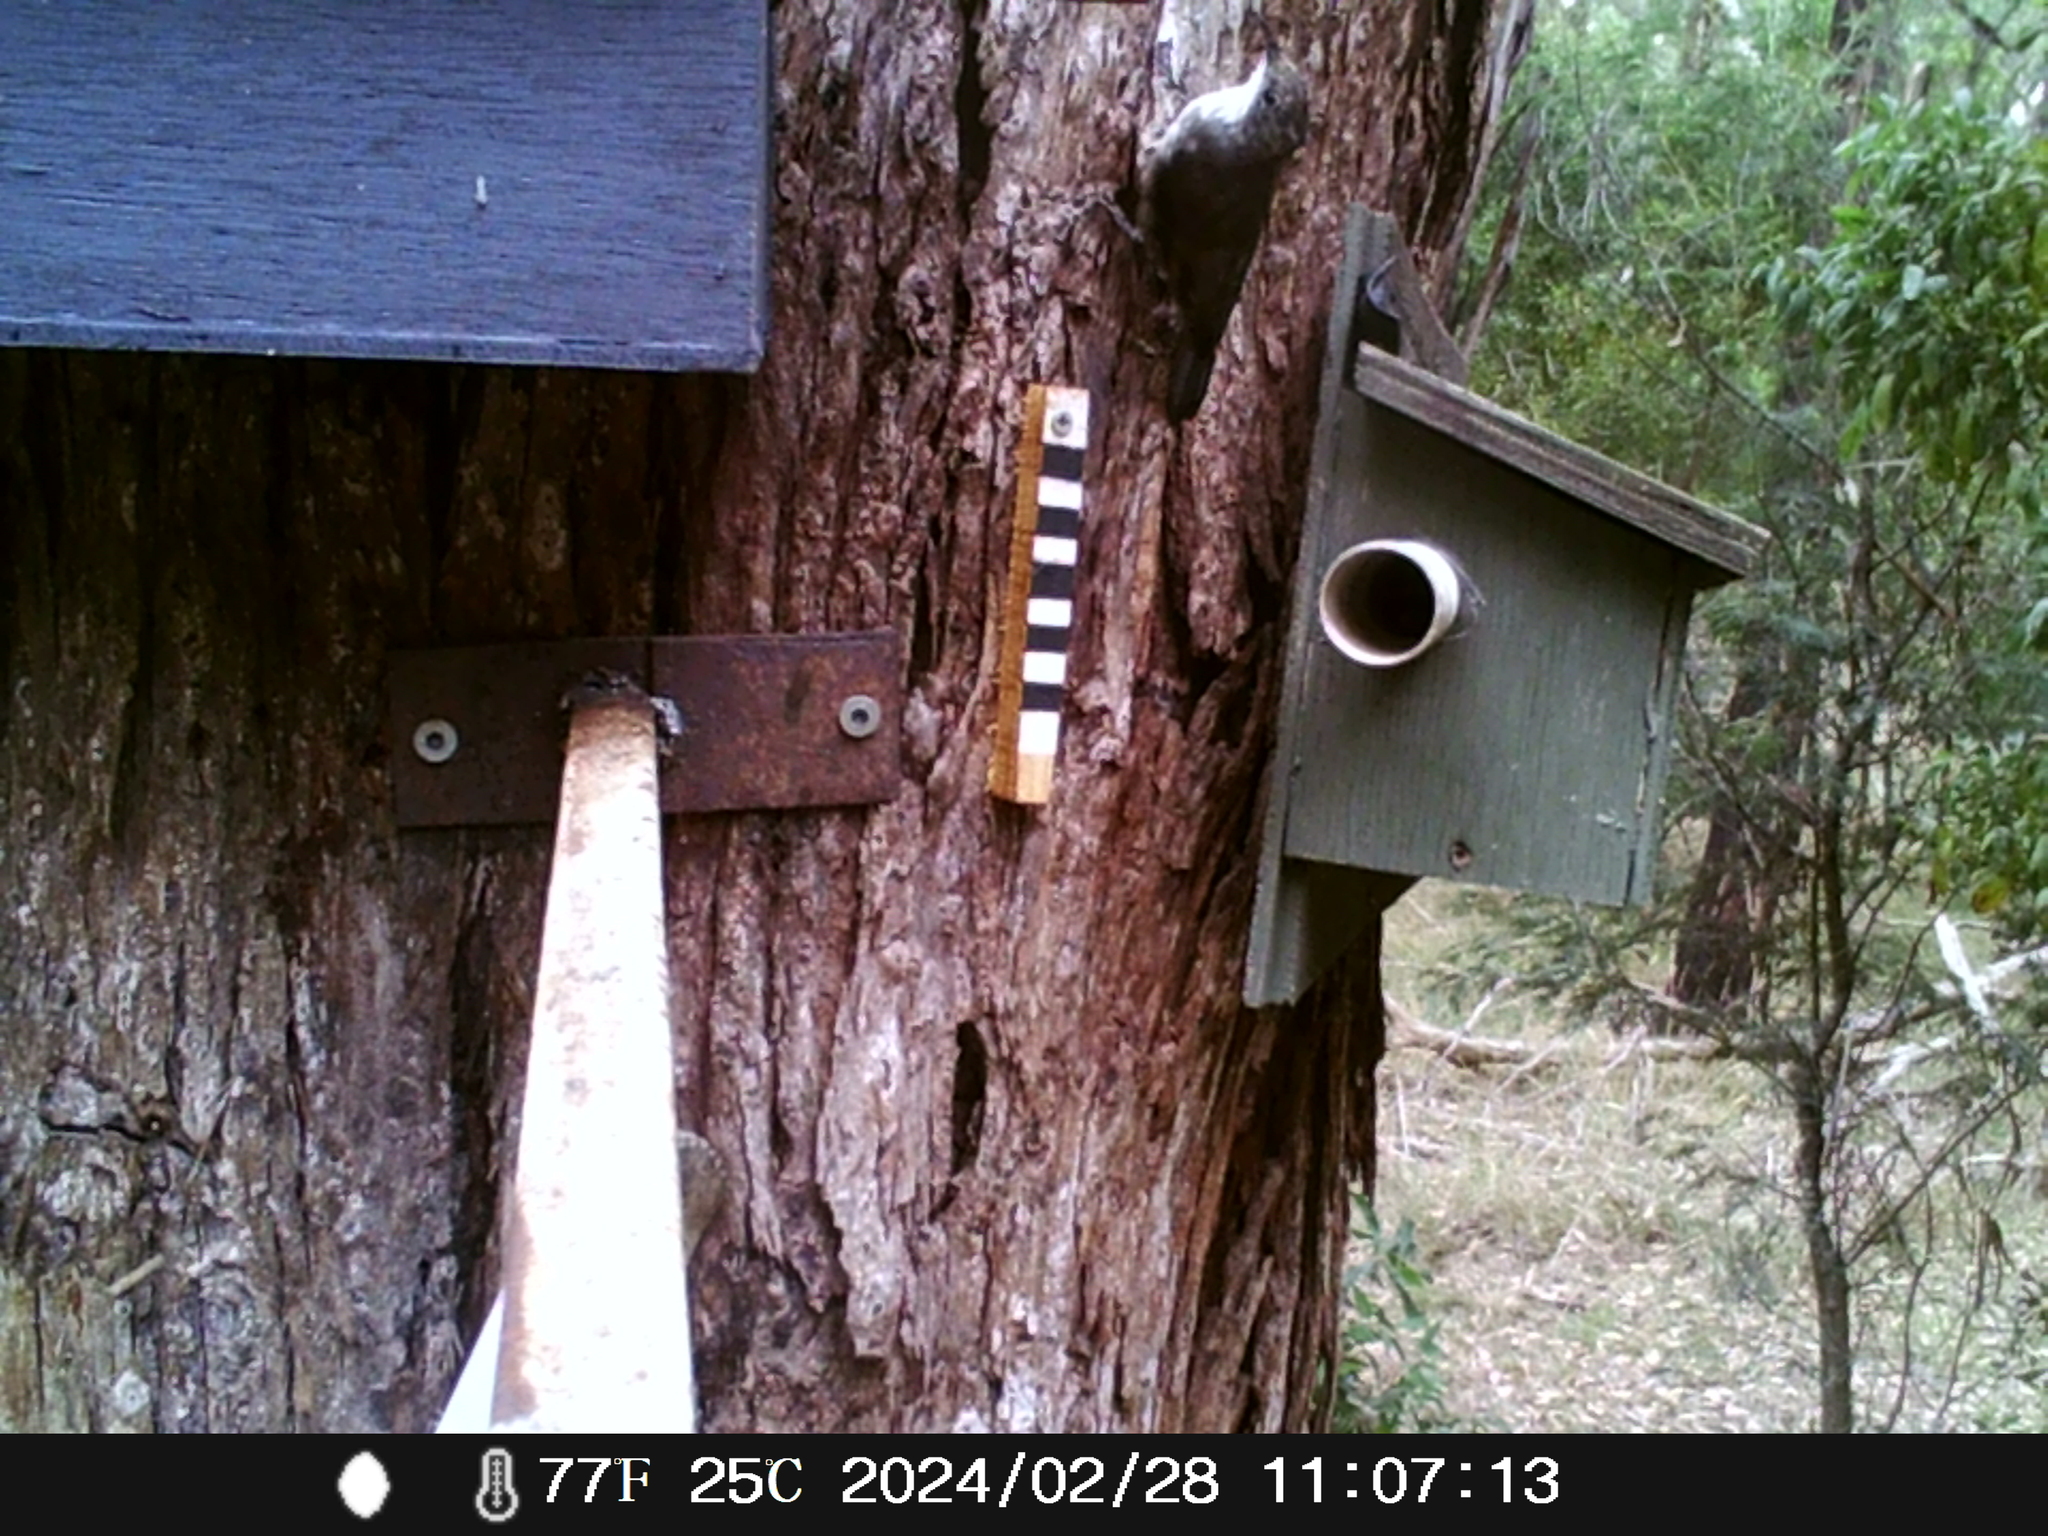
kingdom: Animalia
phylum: Chordata
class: Aves
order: Passeriformes
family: Climacteridae
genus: Cormobates
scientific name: Cormobates leucophaea
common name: White-throated treecreeper
